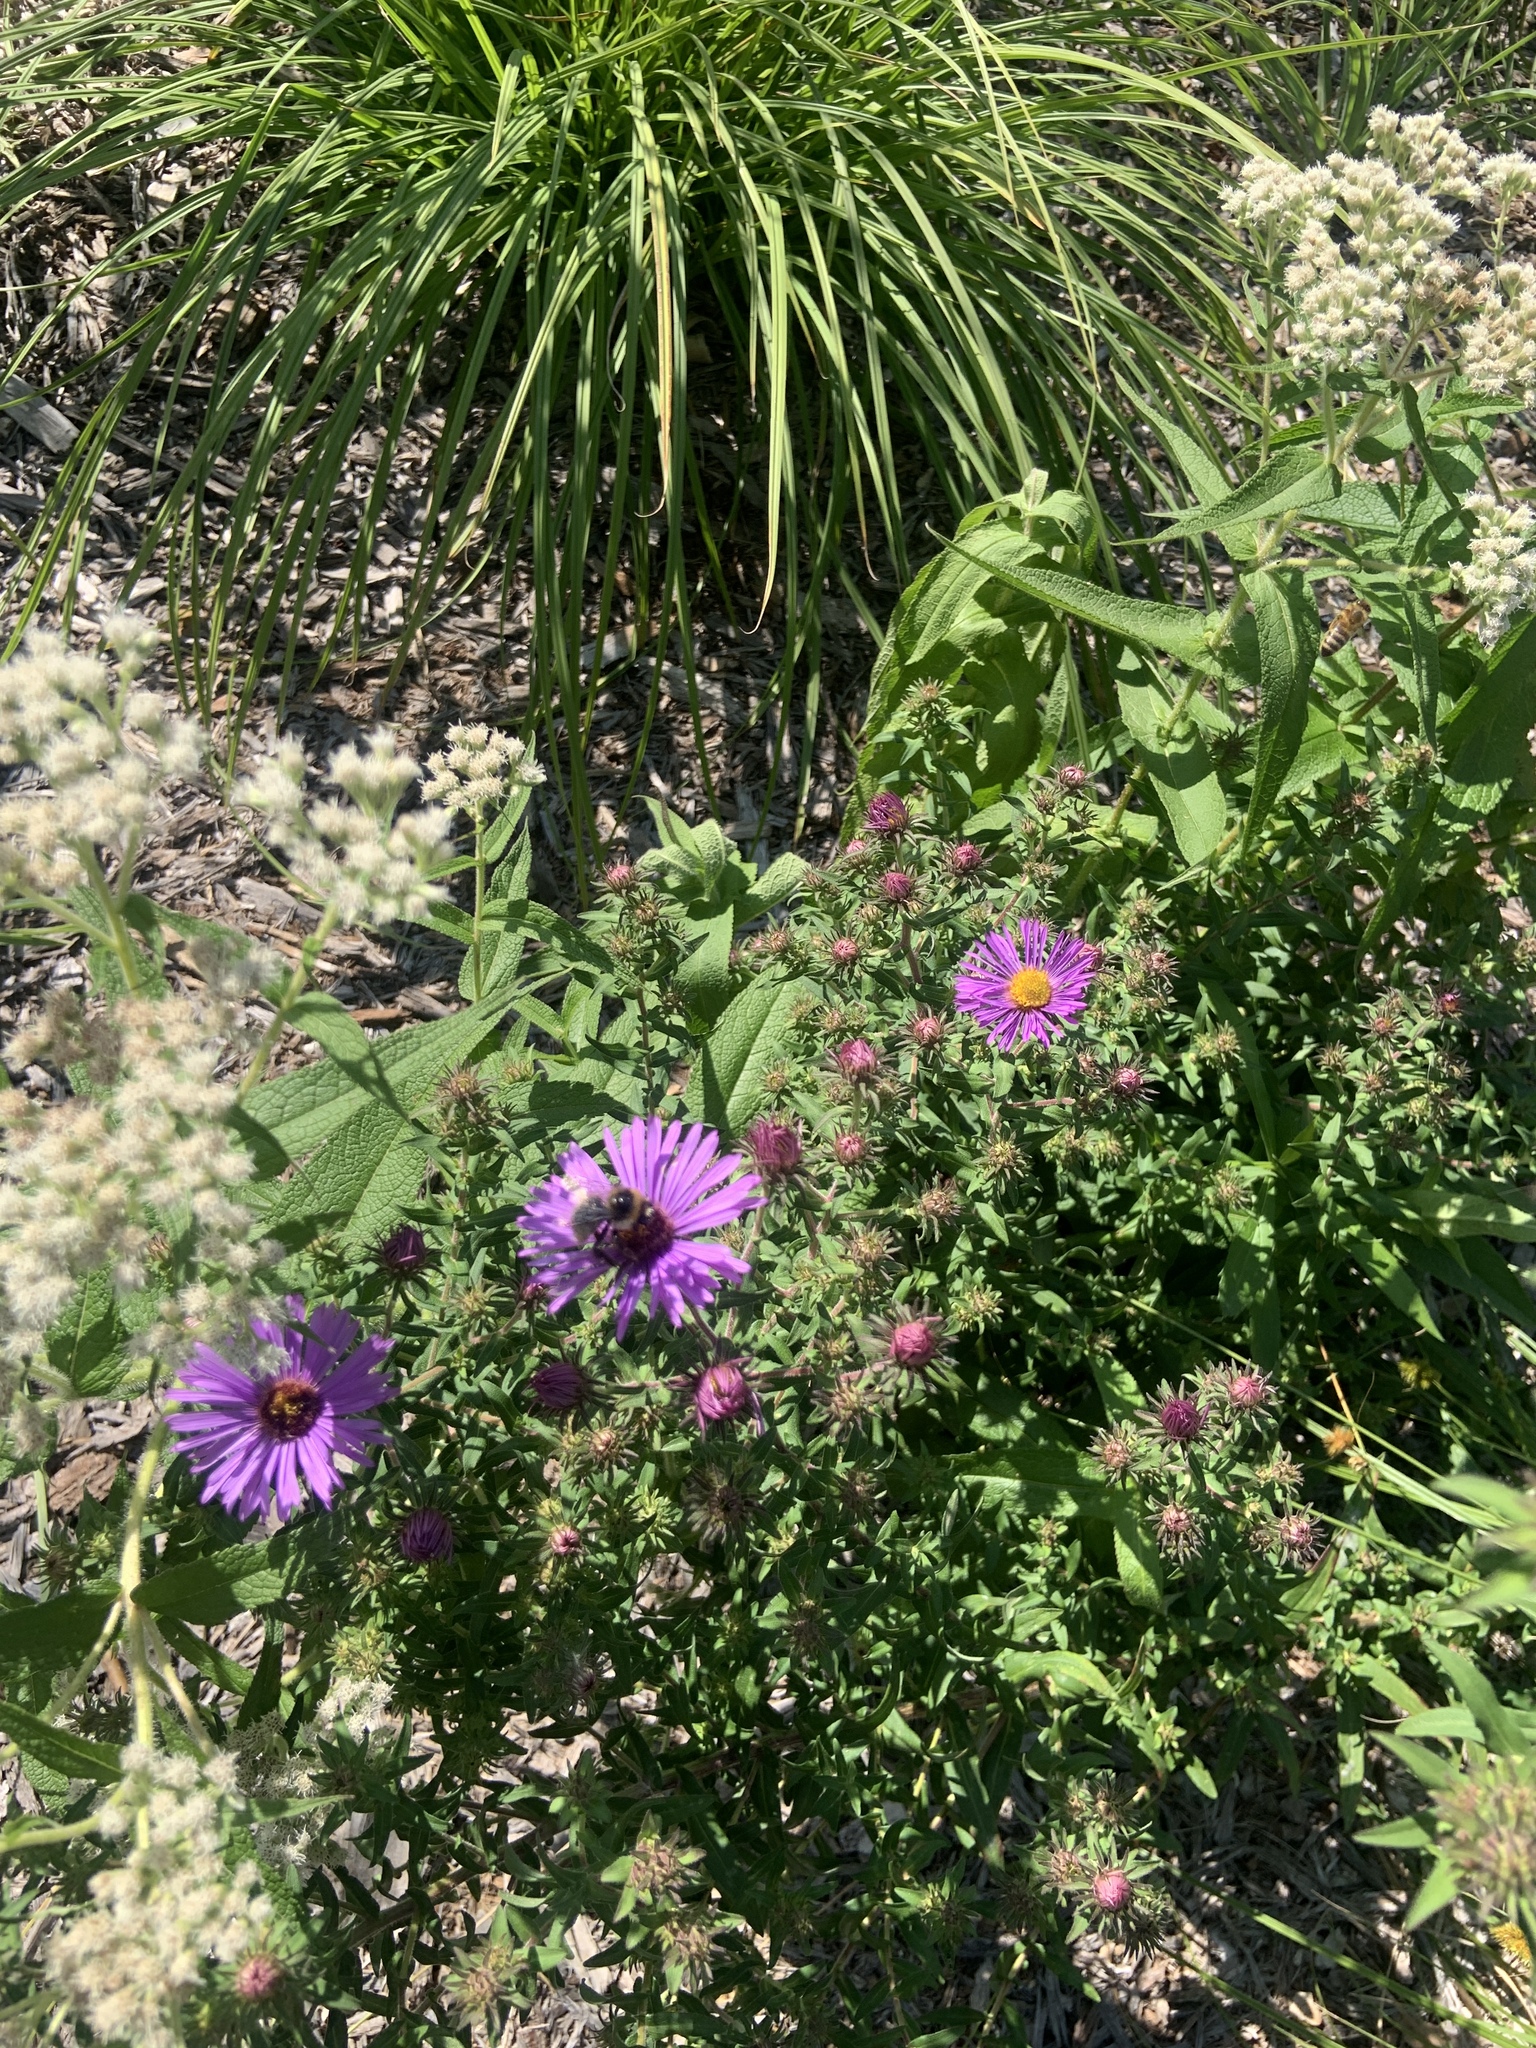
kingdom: Animalia
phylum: Arthropoda
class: Insecta
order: Hymenoptera
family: Apidae
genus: Bombus
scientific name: Bombus rufocinctus
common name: Red-belted bumble bee
